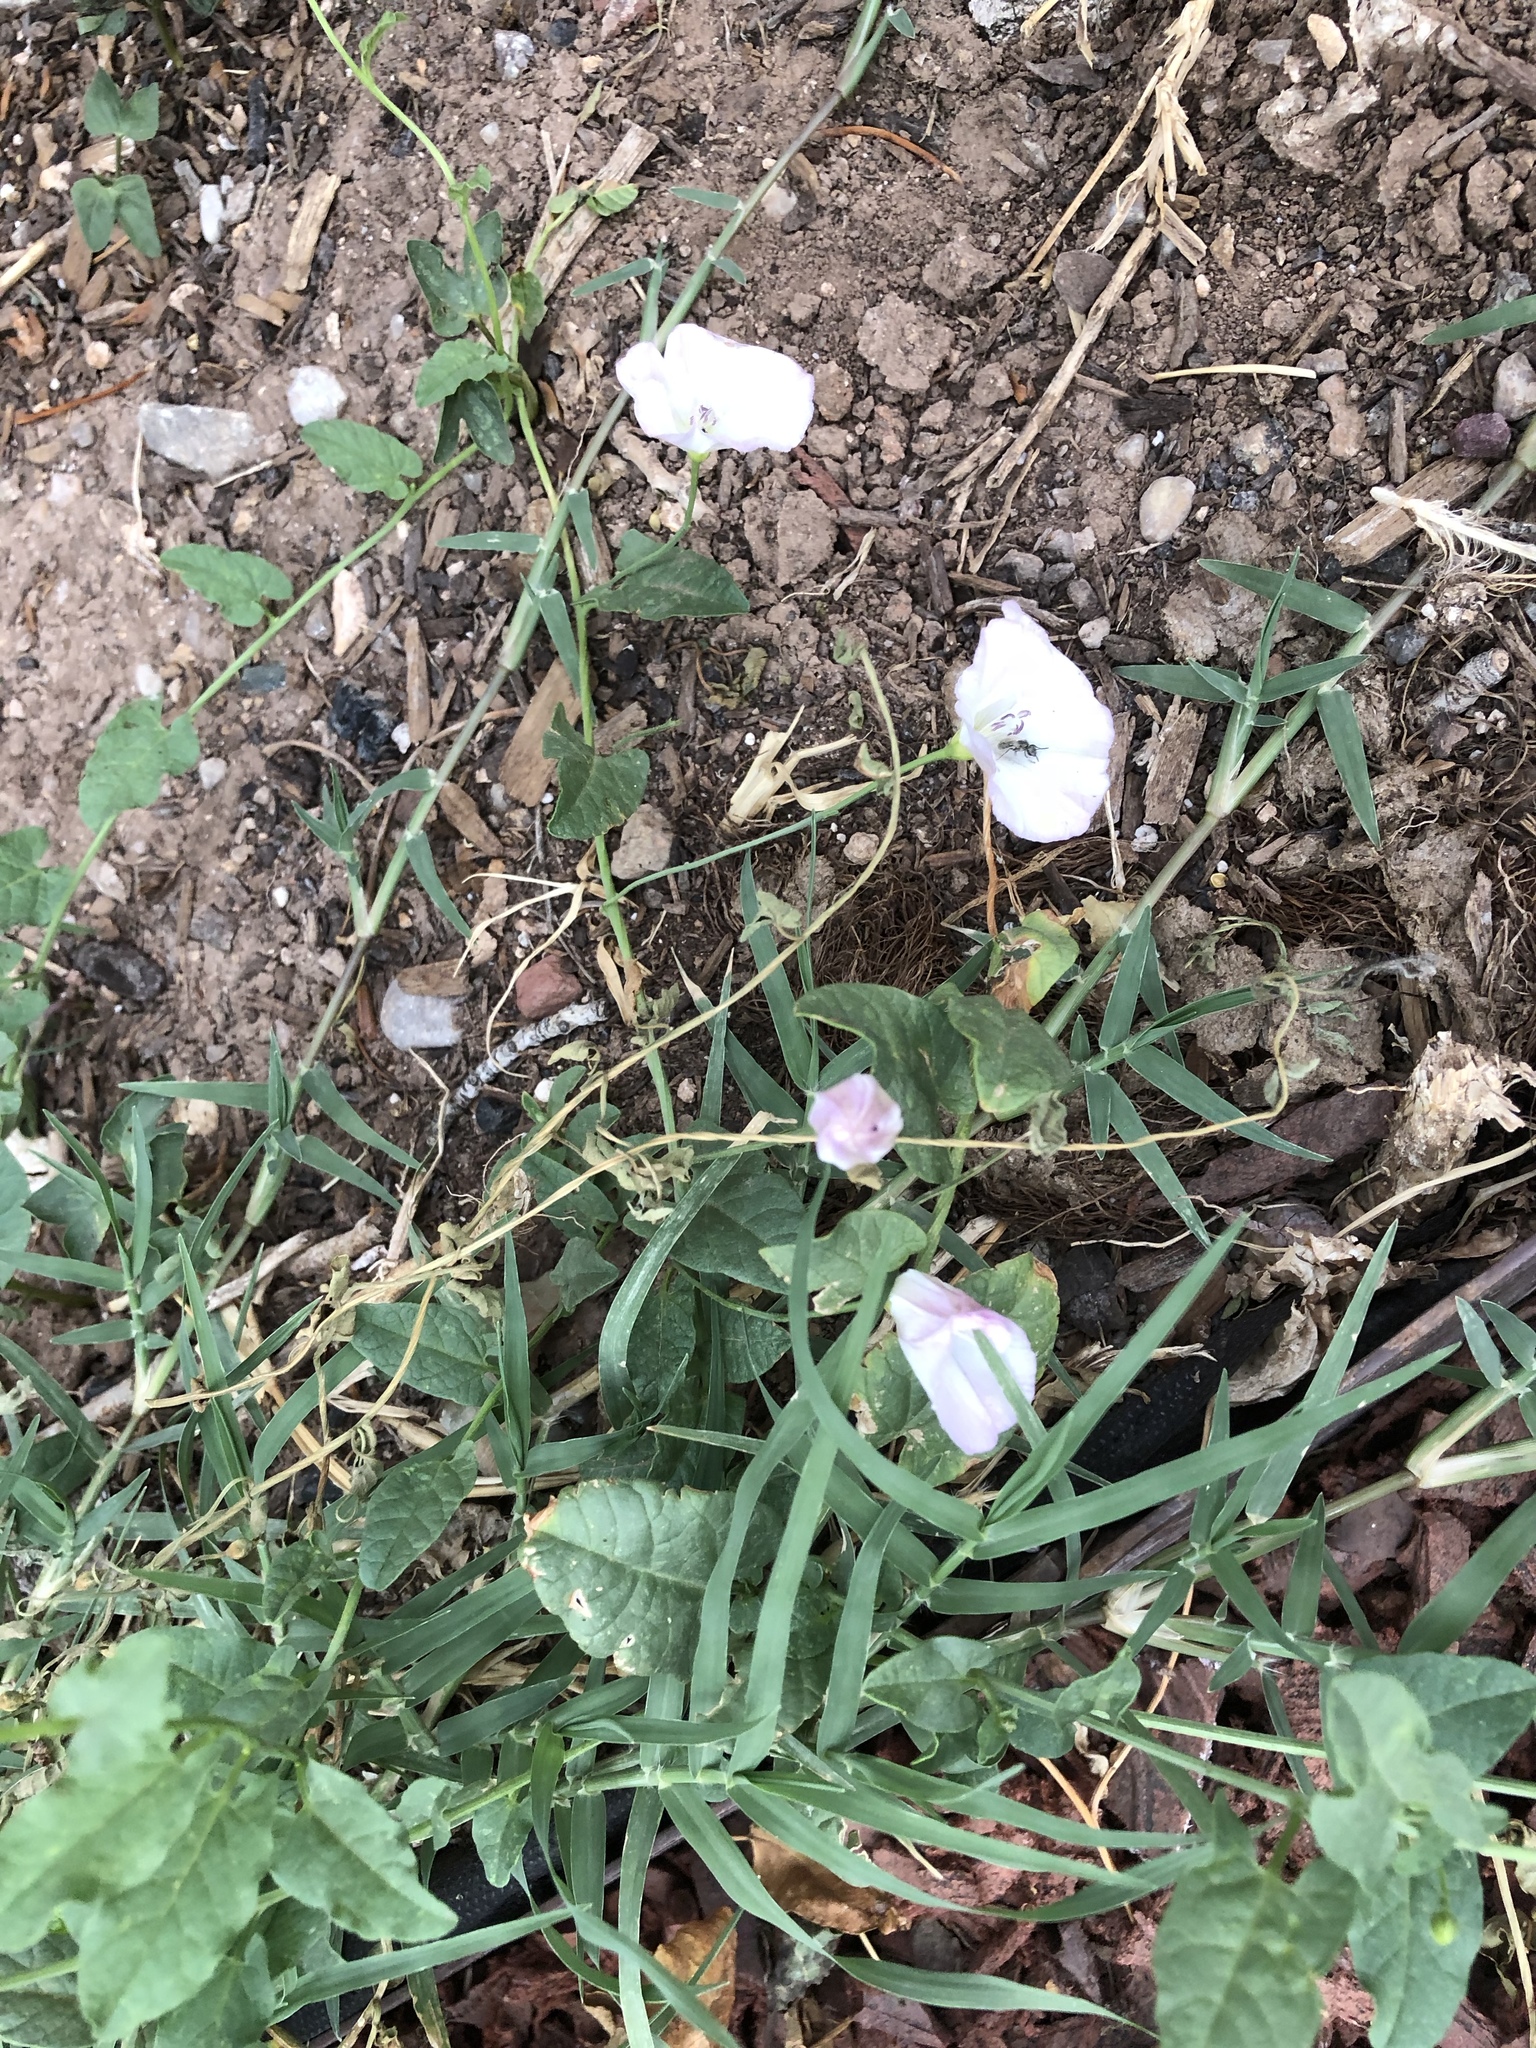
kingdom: Plantae
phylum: Tracheophyta
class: Magnoliopsida
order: Solanales
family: Convolvulaceae
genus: Convolvulus
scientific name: Convolvulus arvensis
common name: Field bindweed
